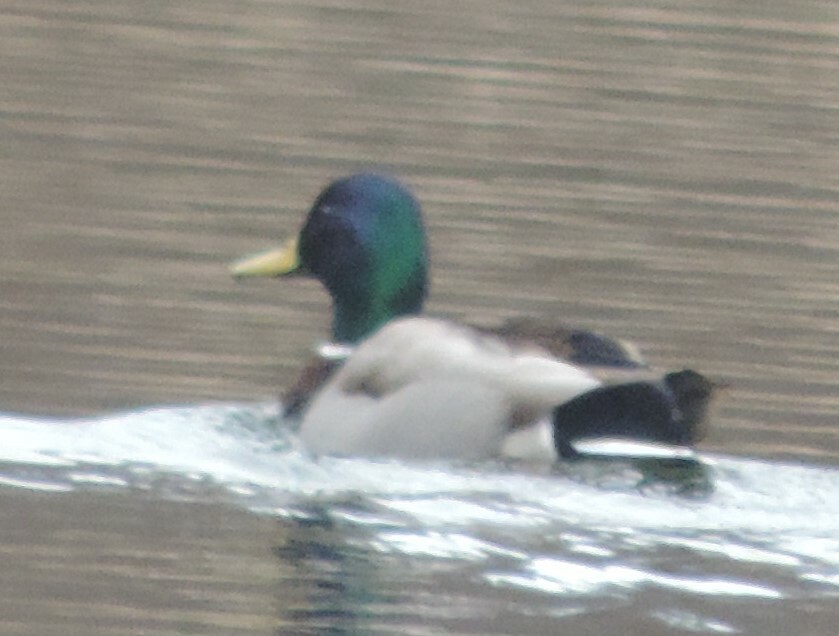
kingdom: Animalia
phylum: Chordata
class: Aves
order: Anseriformes
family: Anatidae
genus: Anas
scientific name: Anas platyrhynchos
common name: Mallard
